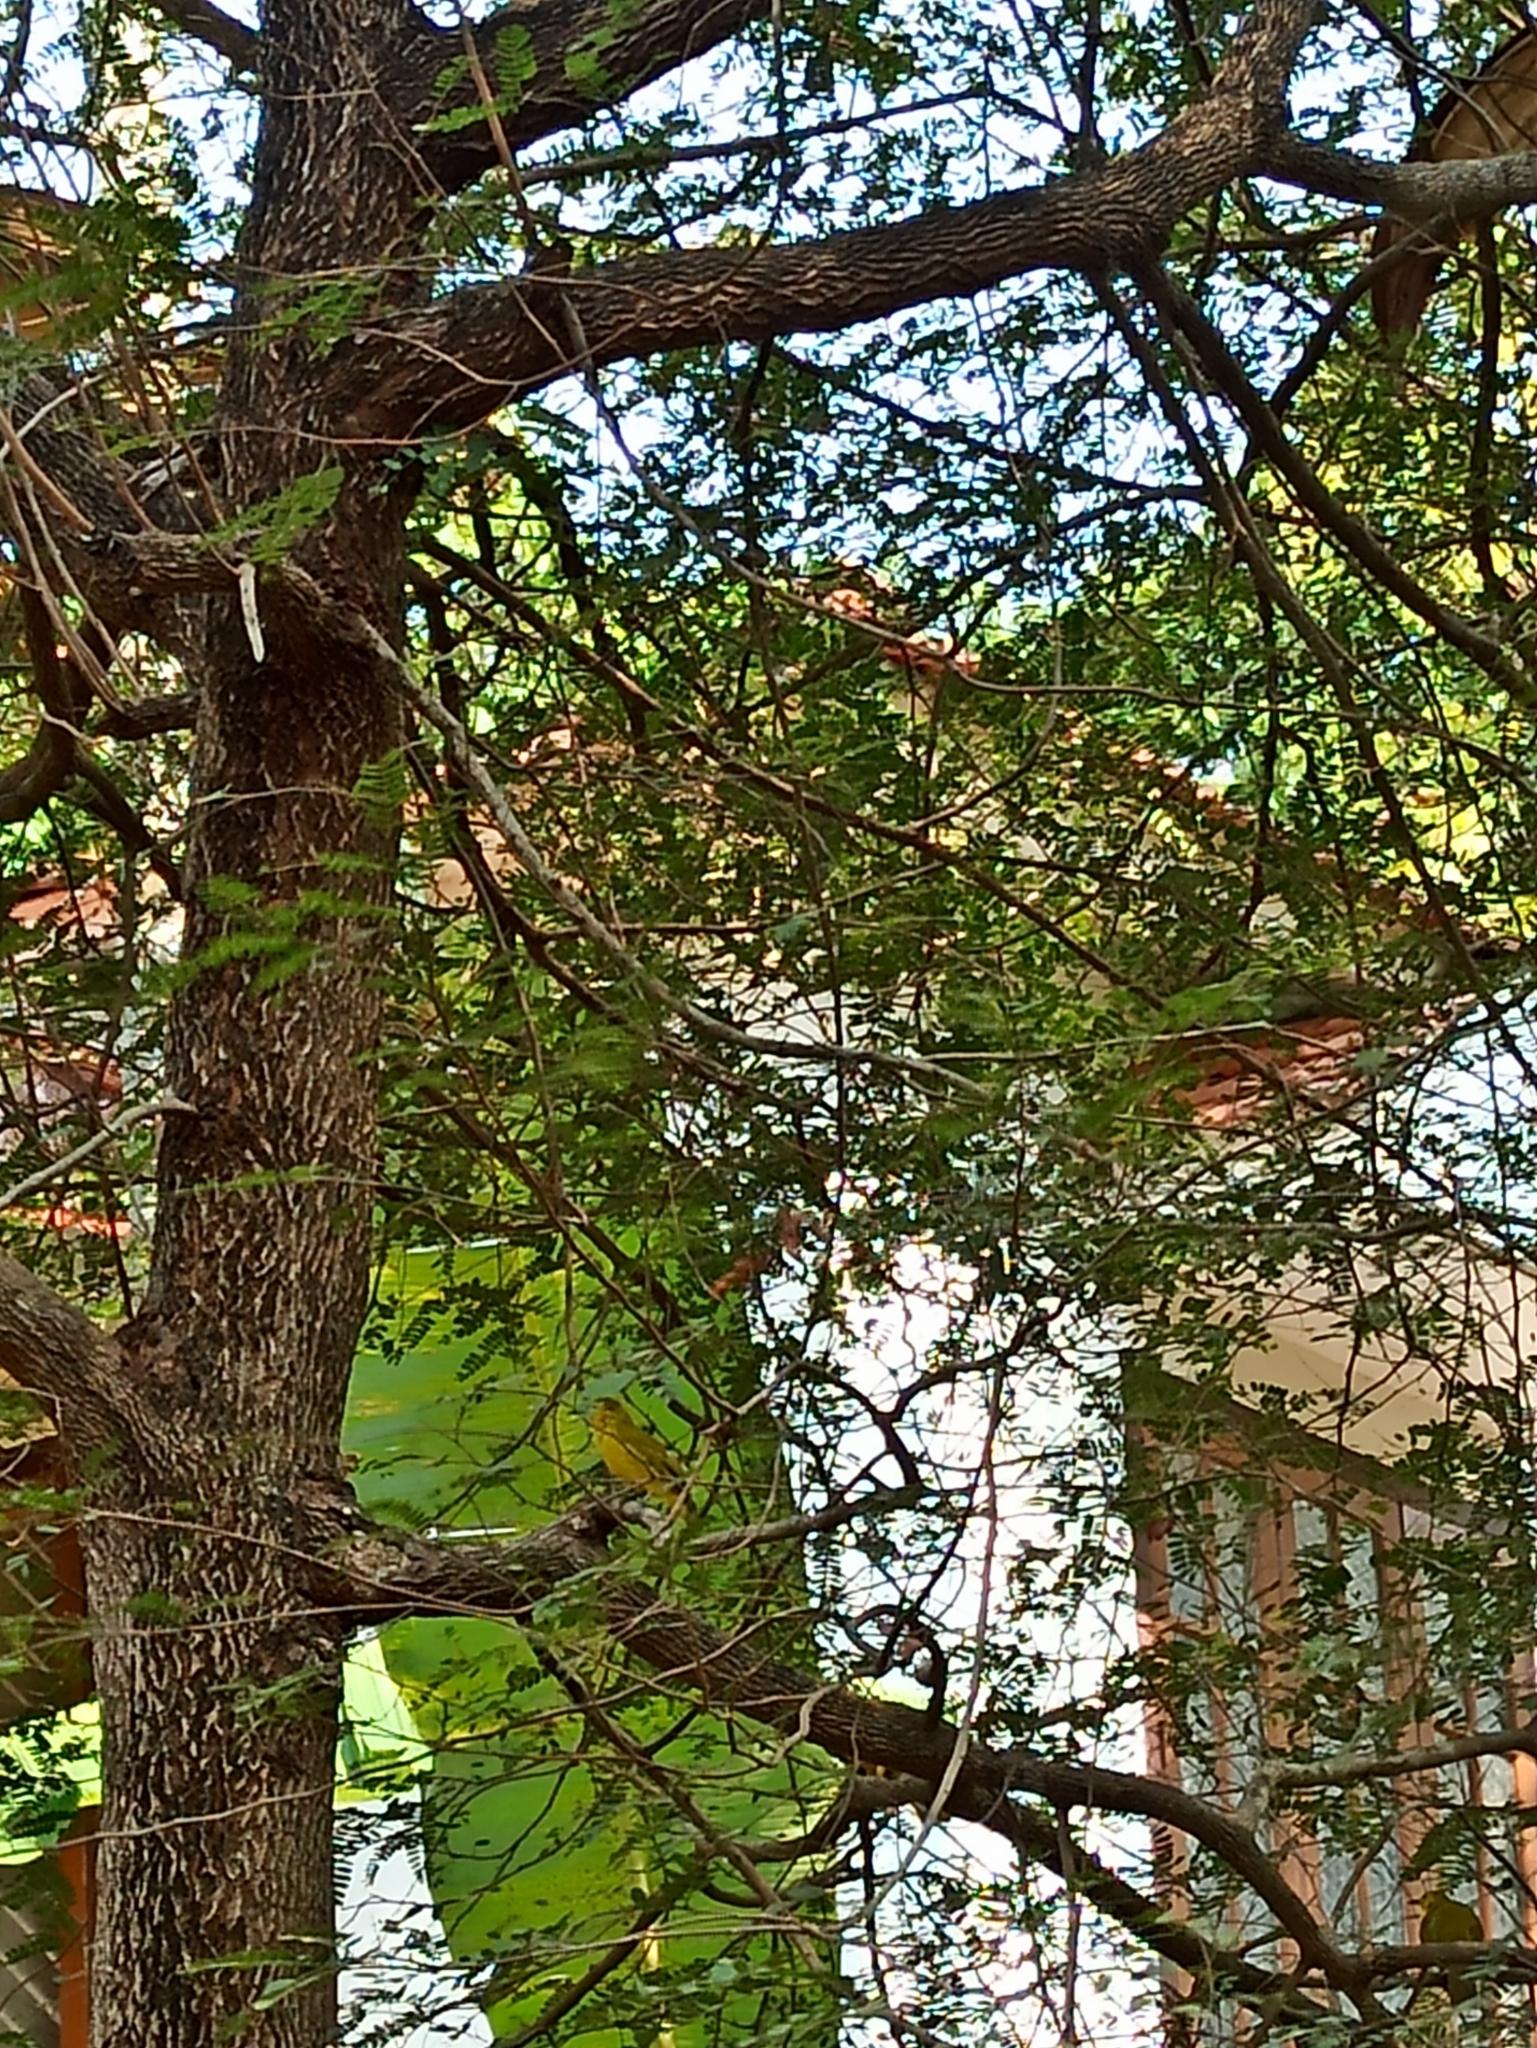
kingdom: Animalia
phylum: Chordata
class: Aves
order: Passeriformes
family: Aegithinidae
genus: Aegithina
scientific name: Aegithina tiphia
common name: Common iora
